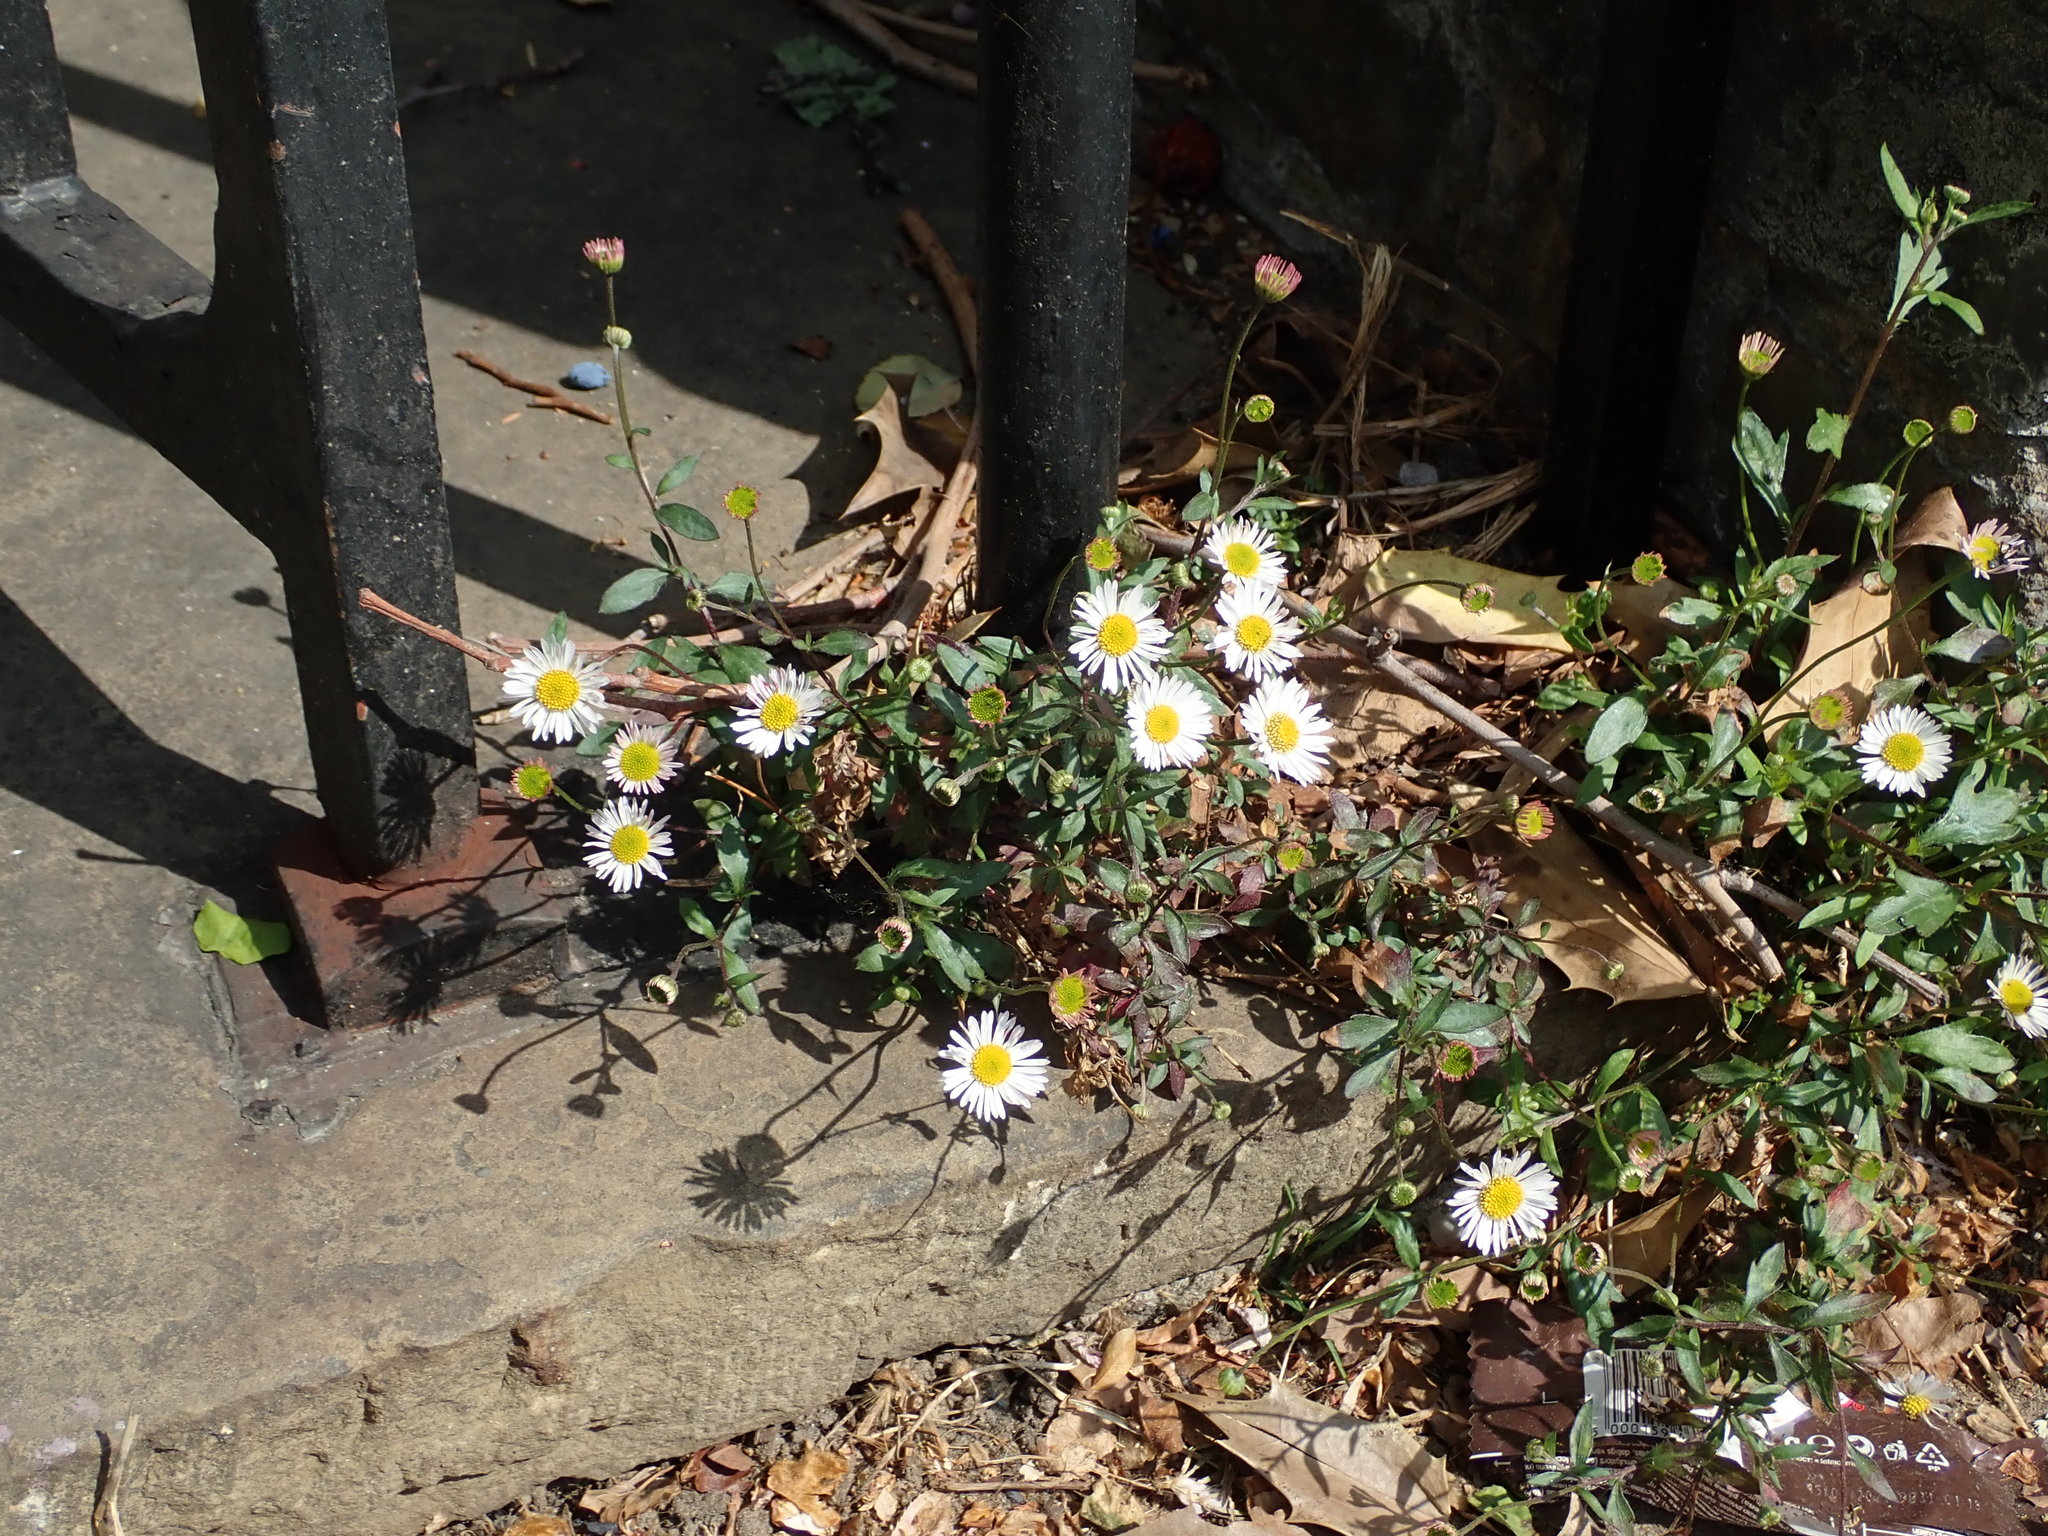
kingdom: Plantae
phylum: Tracheophyta
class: Magnoliopsida
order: Asterales
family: Asteraceae
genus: Erigeron
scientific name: Erigeron karvinskianus
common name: Mexican fleabane
